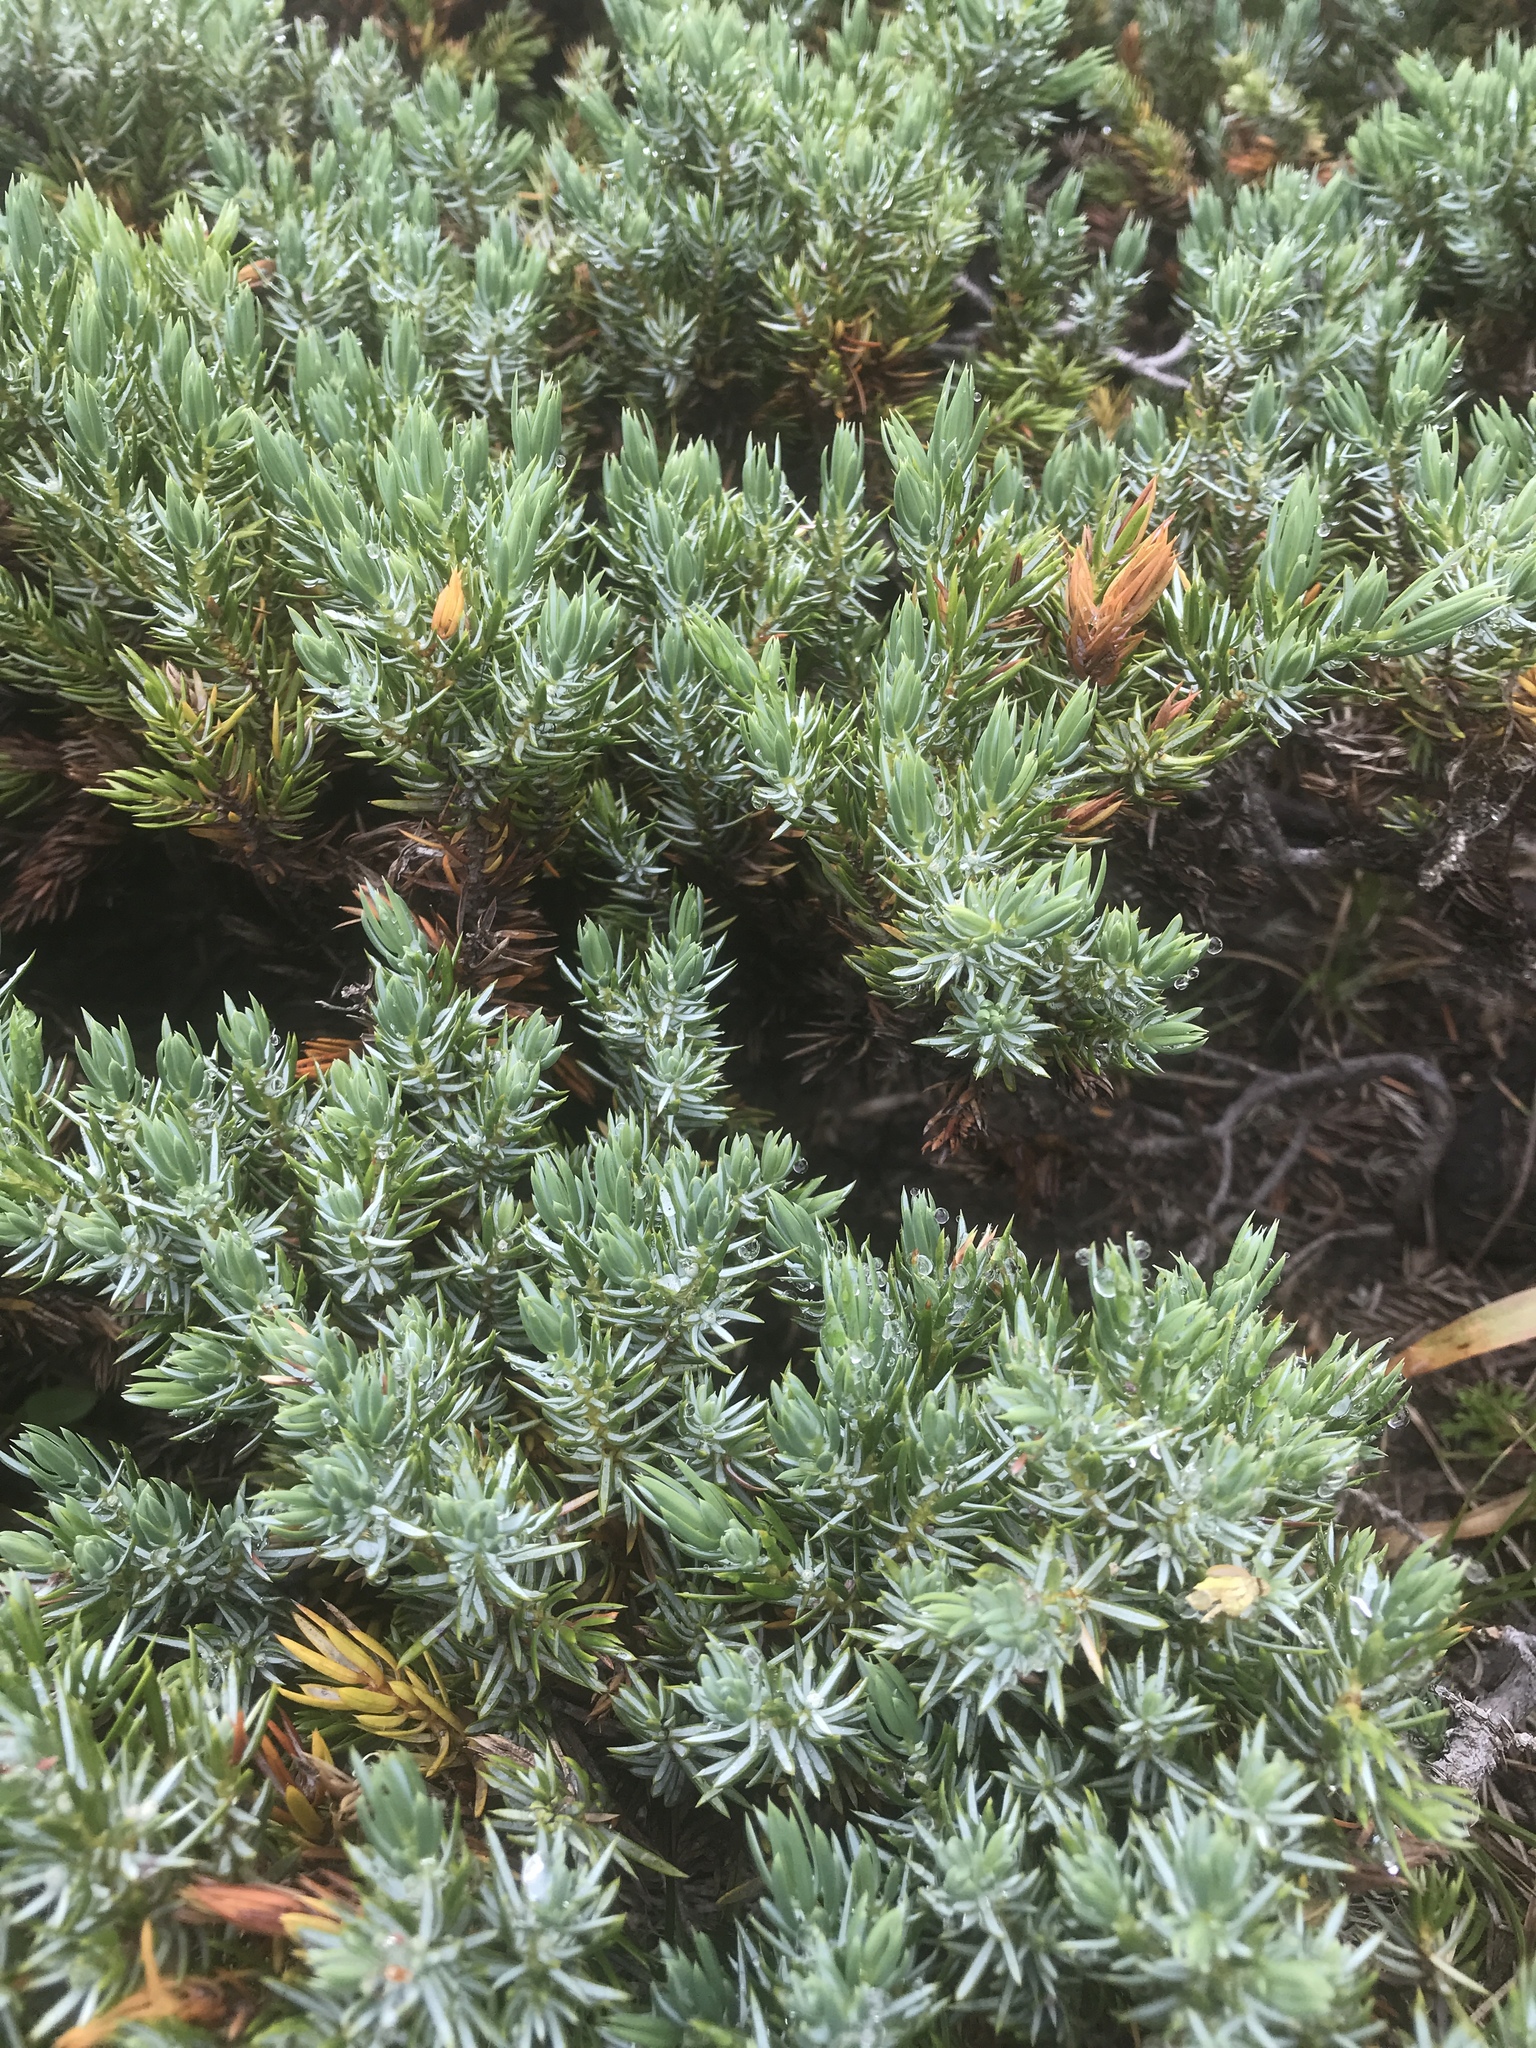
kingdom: Plantae
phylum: Tracheophyta
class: Pinopsida
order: Pinales
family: Cupressaceae
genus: Juniperus
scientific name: Juniperus communis
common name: Common juniper
